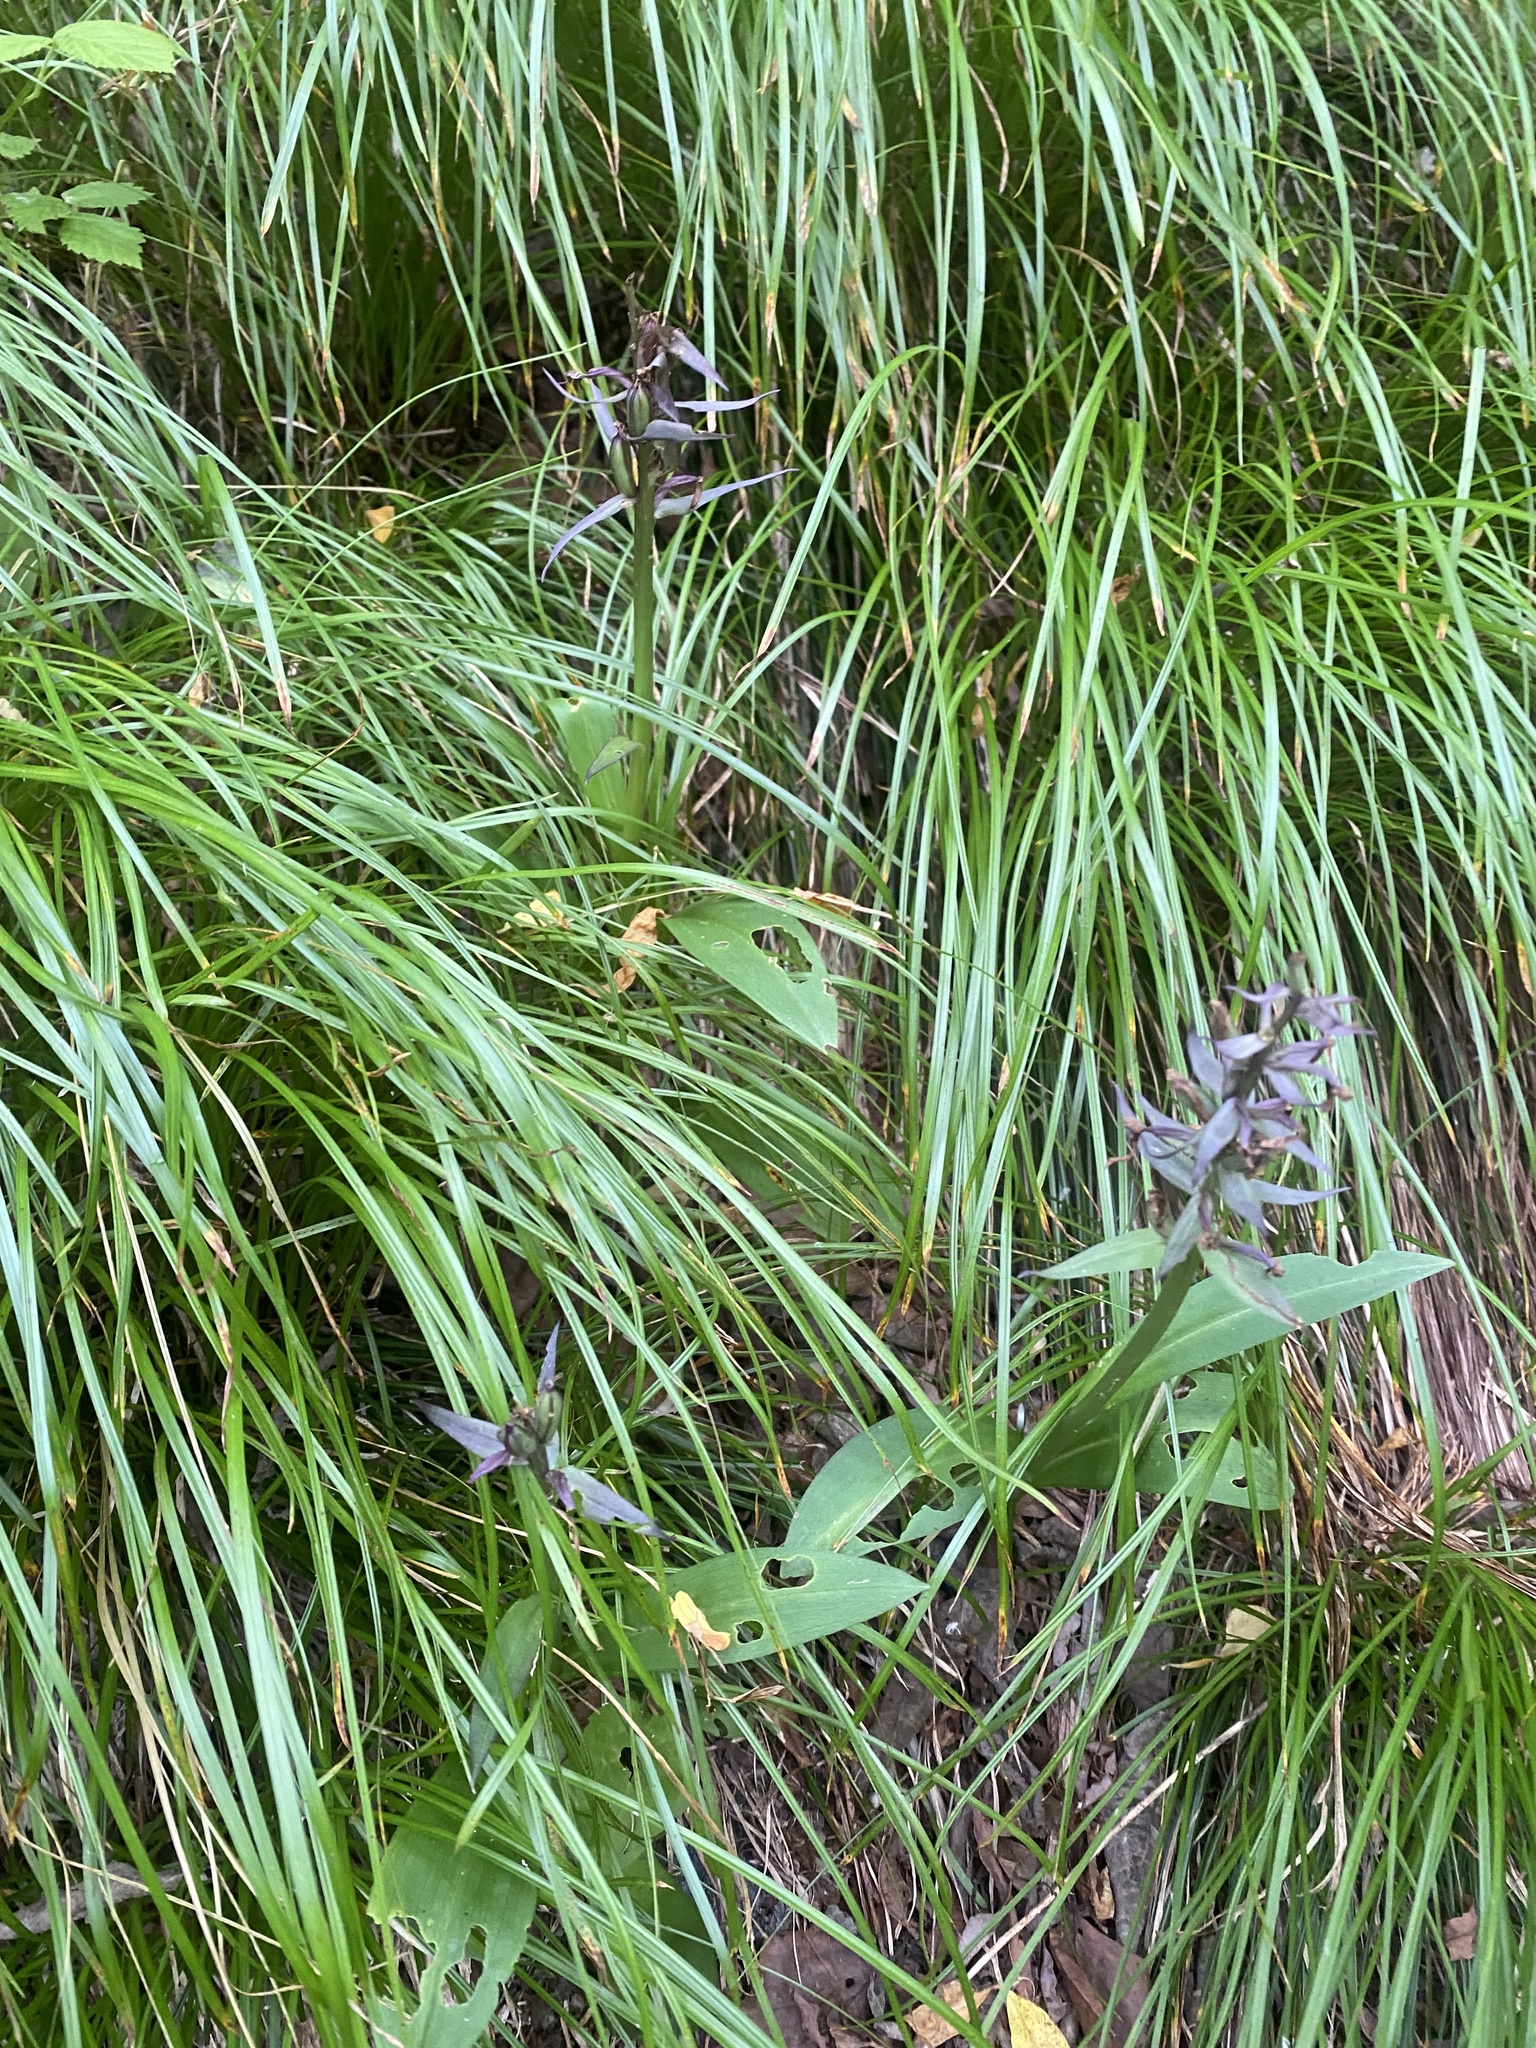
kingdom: Plantae
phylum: Tracheophyta
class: Liliopsida
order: Asparagales
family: Orchidaceae
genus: Dactylorhiza
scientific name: Dactylorhiza aristata
